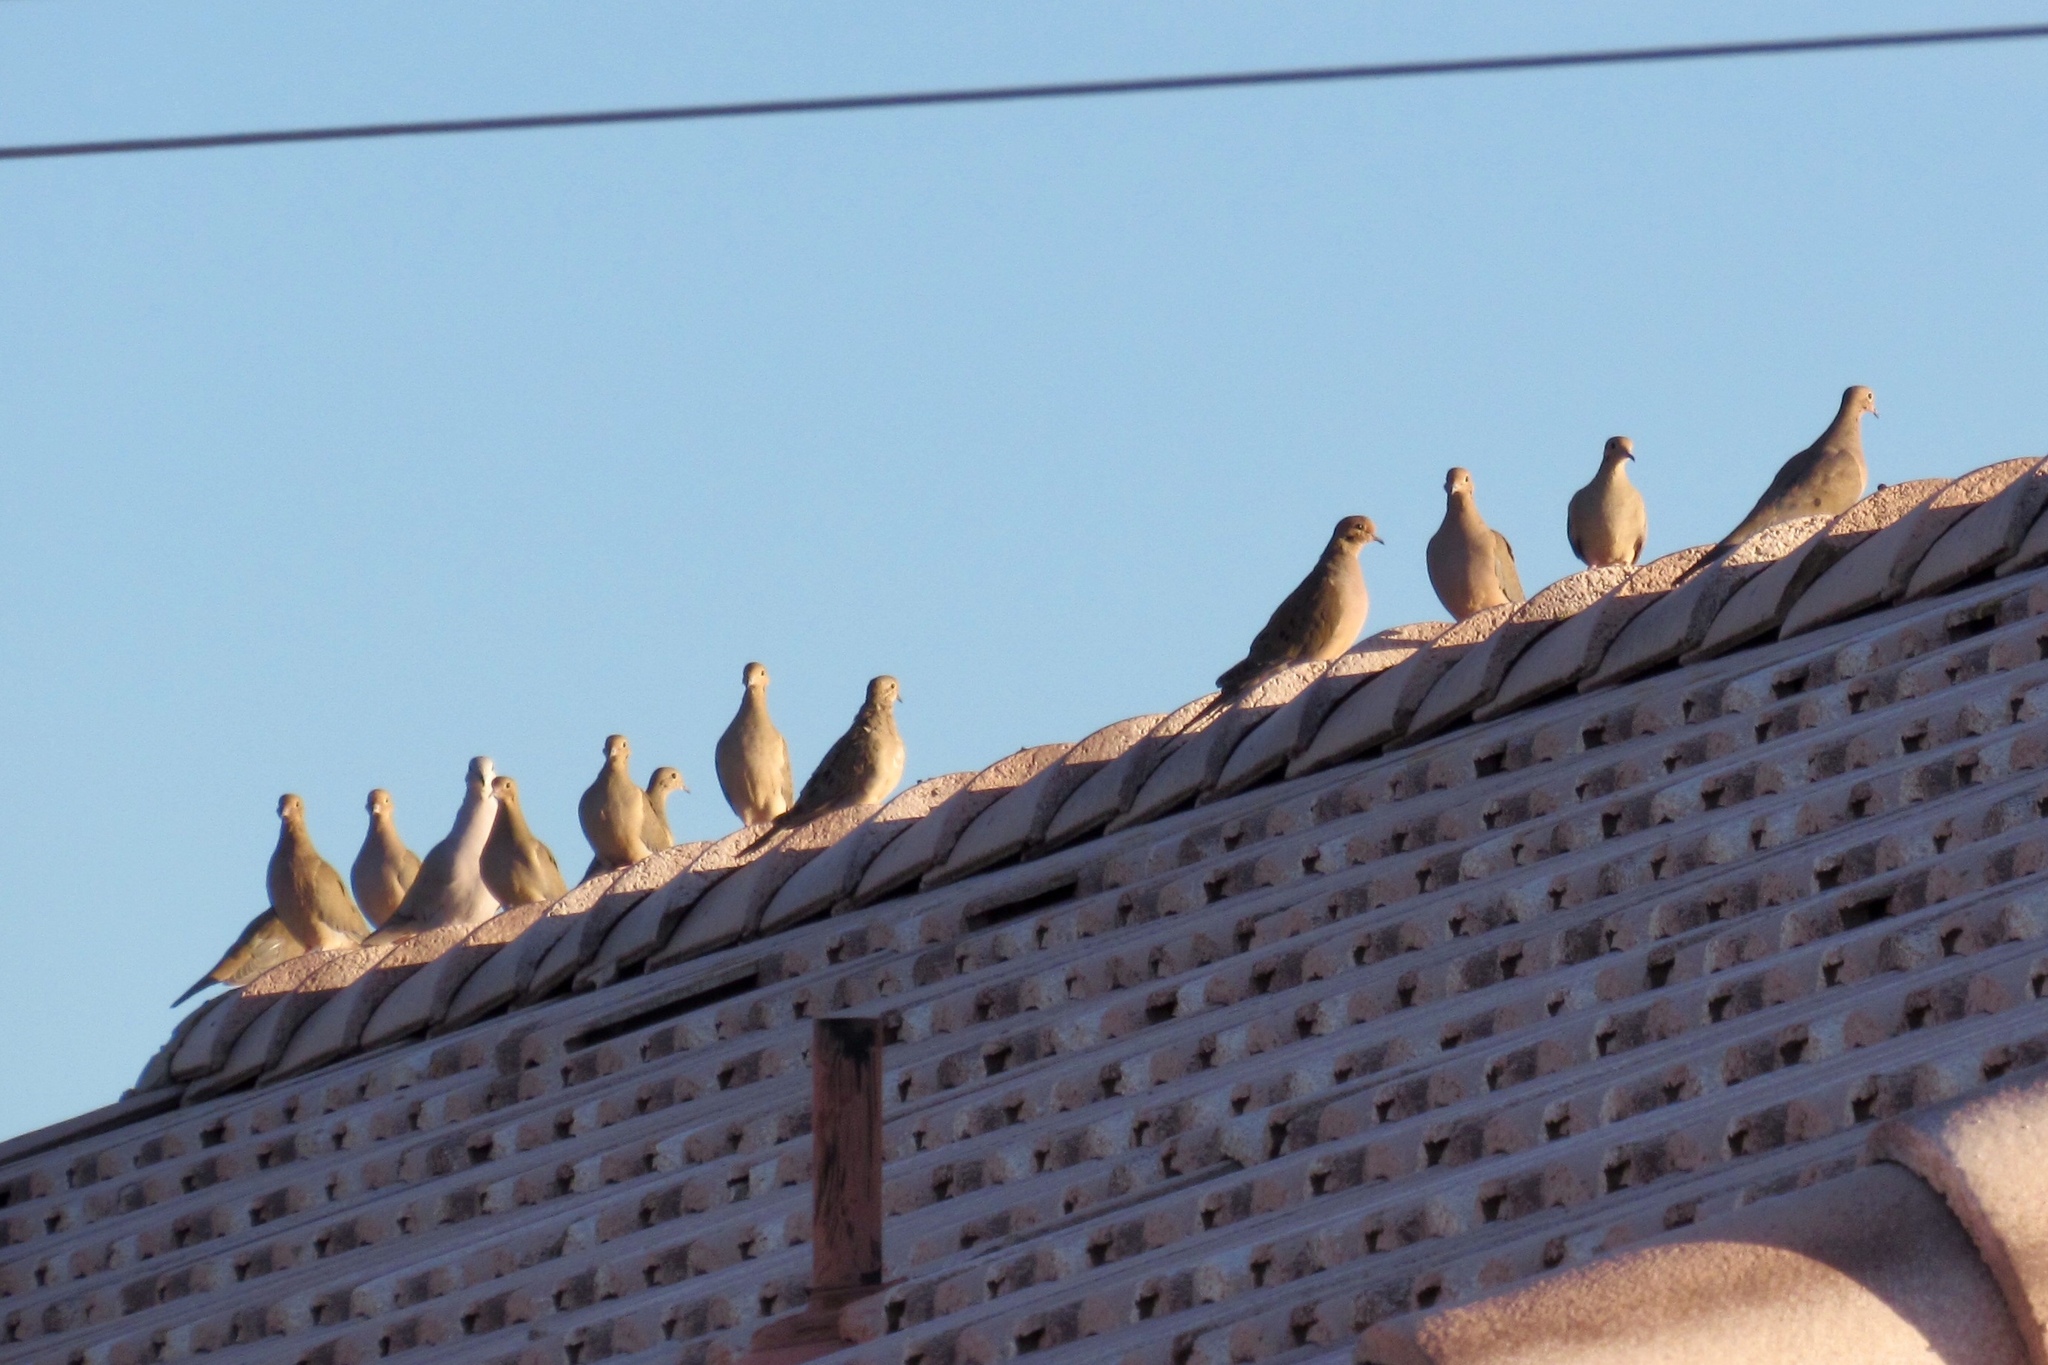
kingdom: Animalia
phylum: Chordata
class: Aves
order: Columbiformes
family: Columbidae
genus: Zenaida
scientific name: Zenaida macroura
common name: Mourning dove
